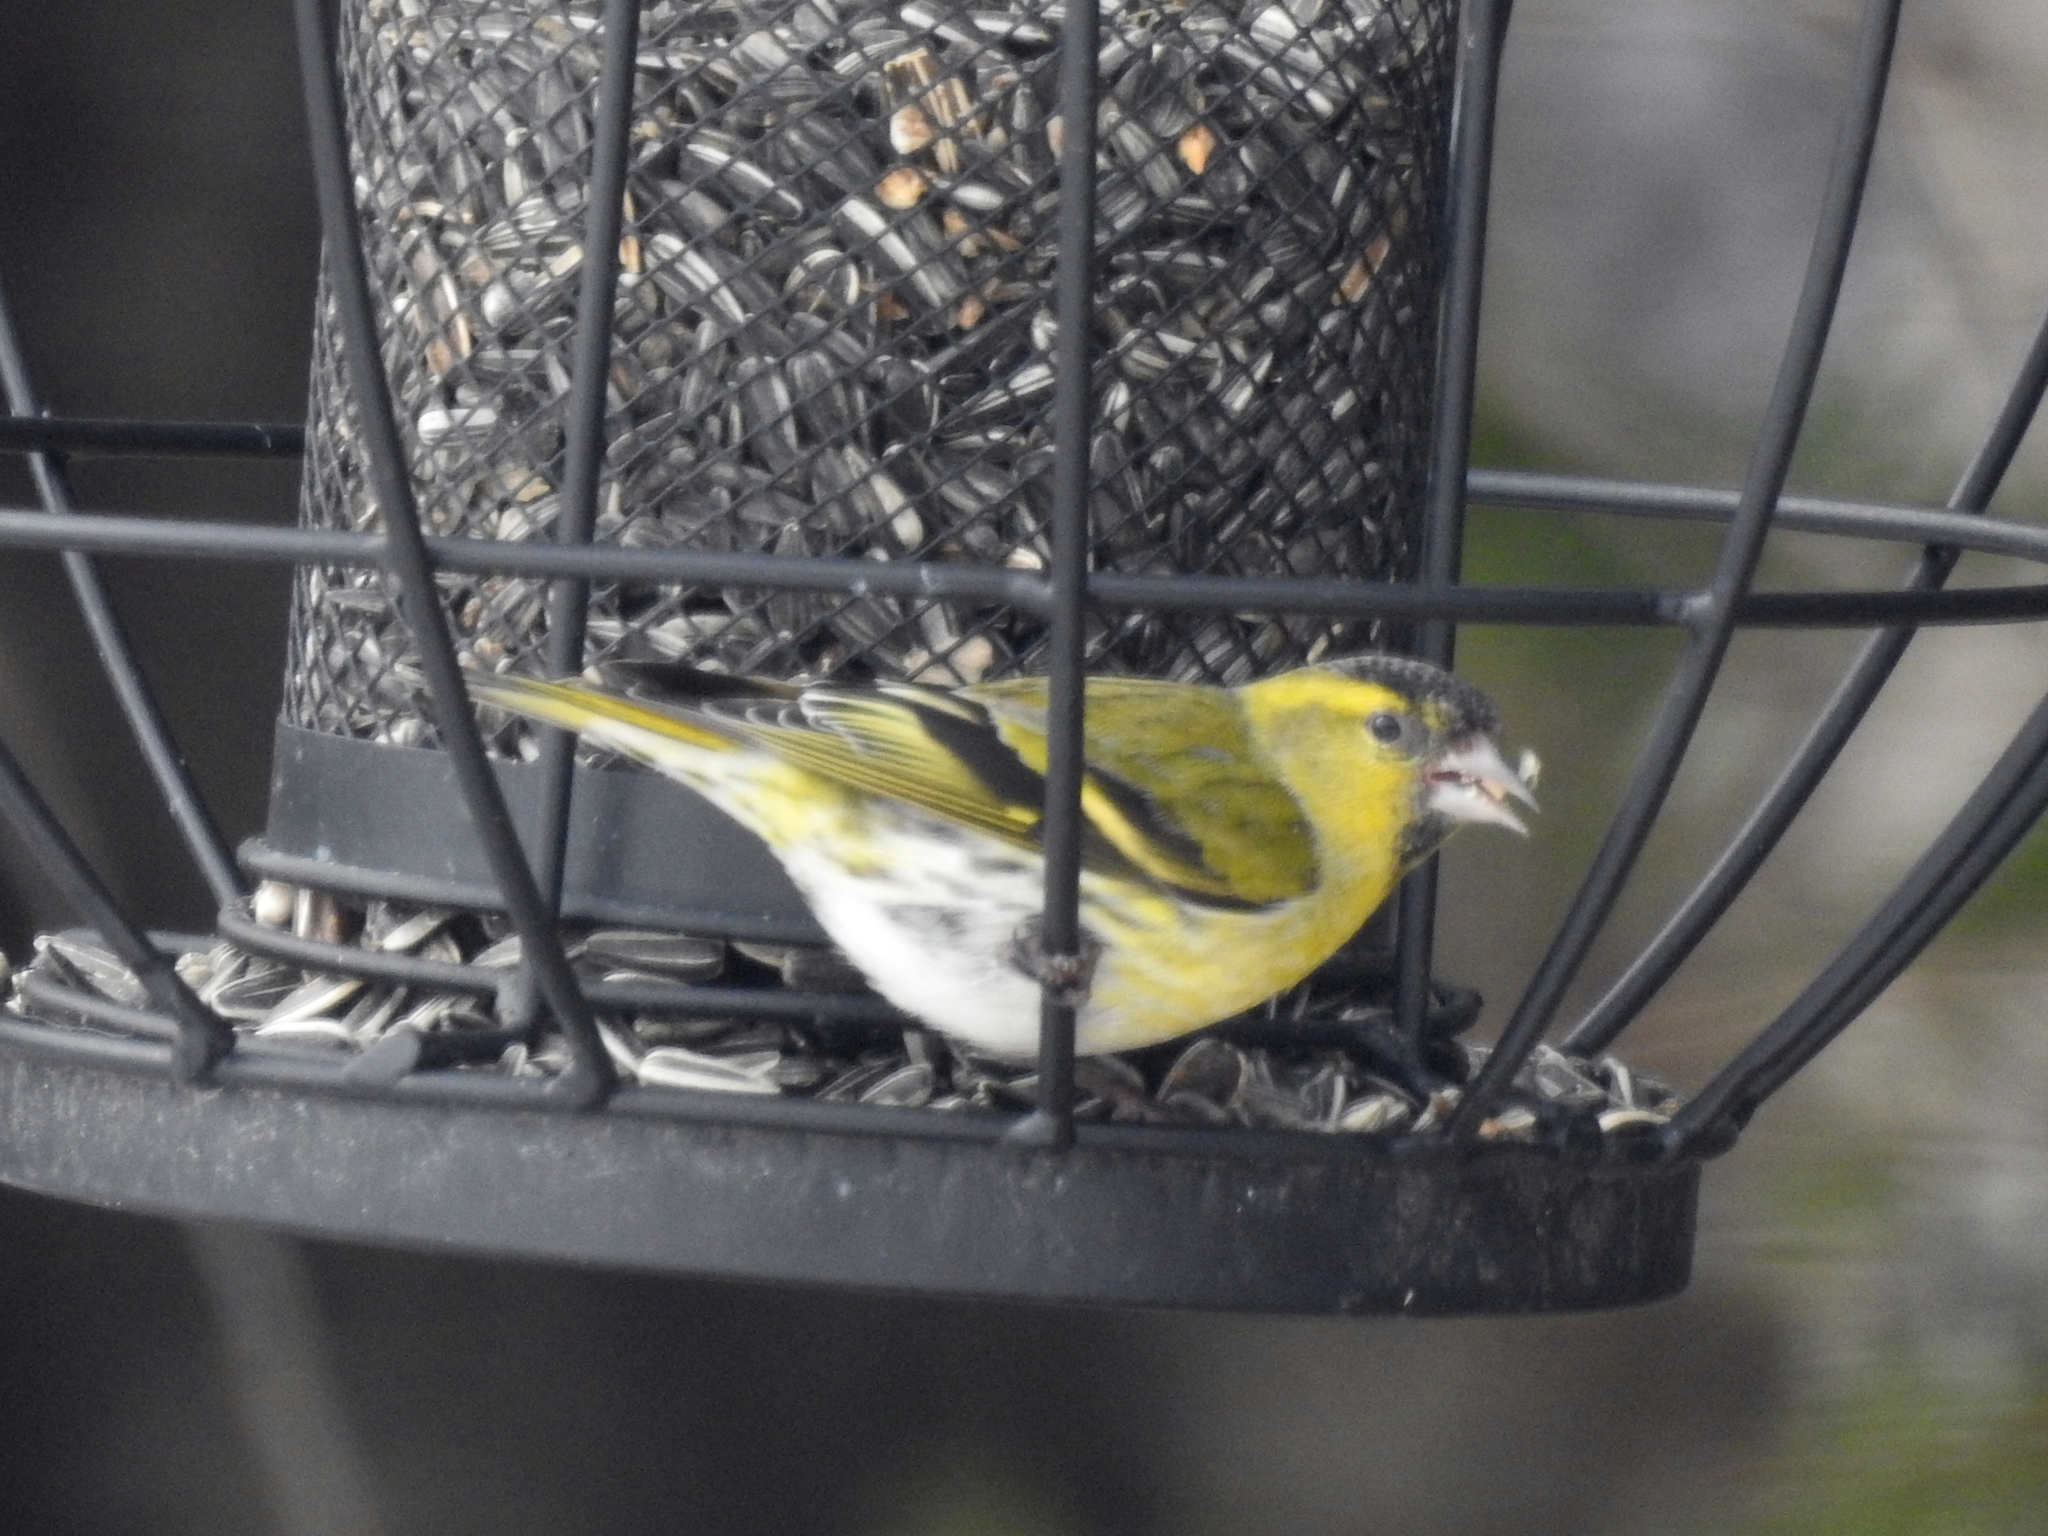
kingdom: Animalia
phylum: Chordata
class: Aves
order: Passeriformes
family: Fringillidae
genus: Spinus
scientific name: Spinus spinus
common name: Eurasian siskin
